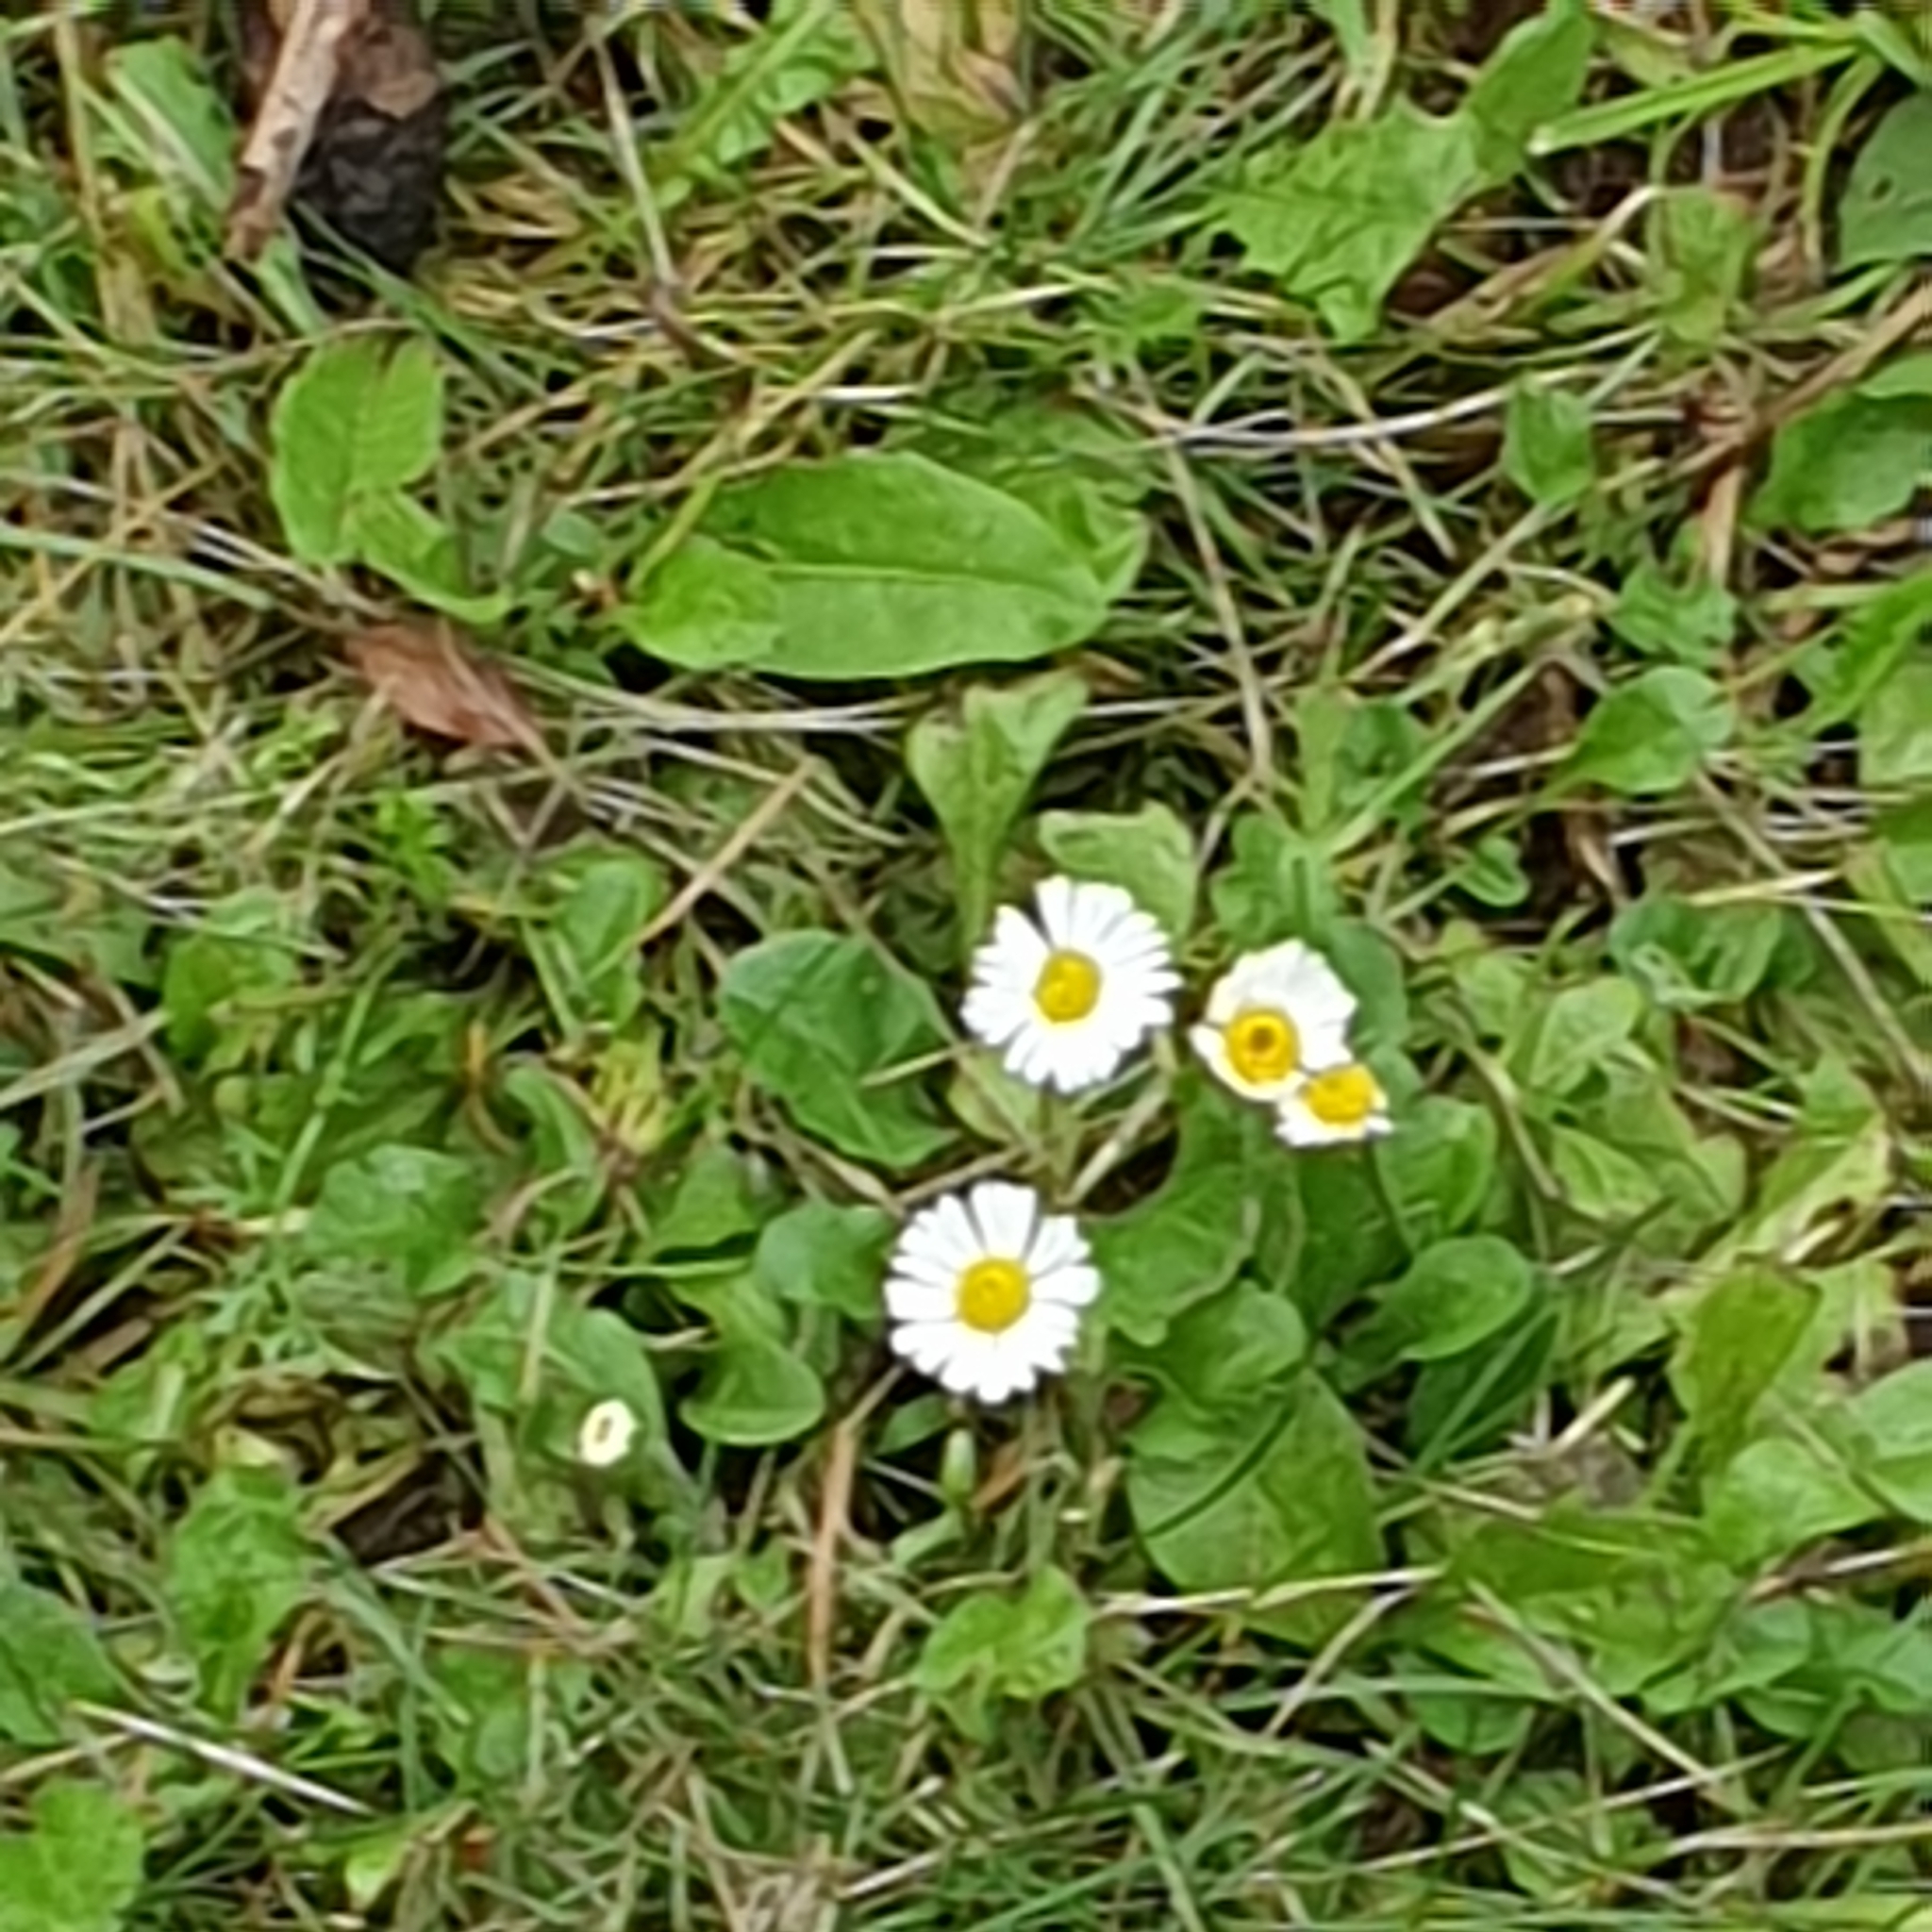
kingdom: Plantae
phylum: Tracheophyta
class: Magnoliopsida
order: Asterales
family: Asteraceae
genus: Bellis
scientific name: Bellis perennis
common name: Lawndaisy
